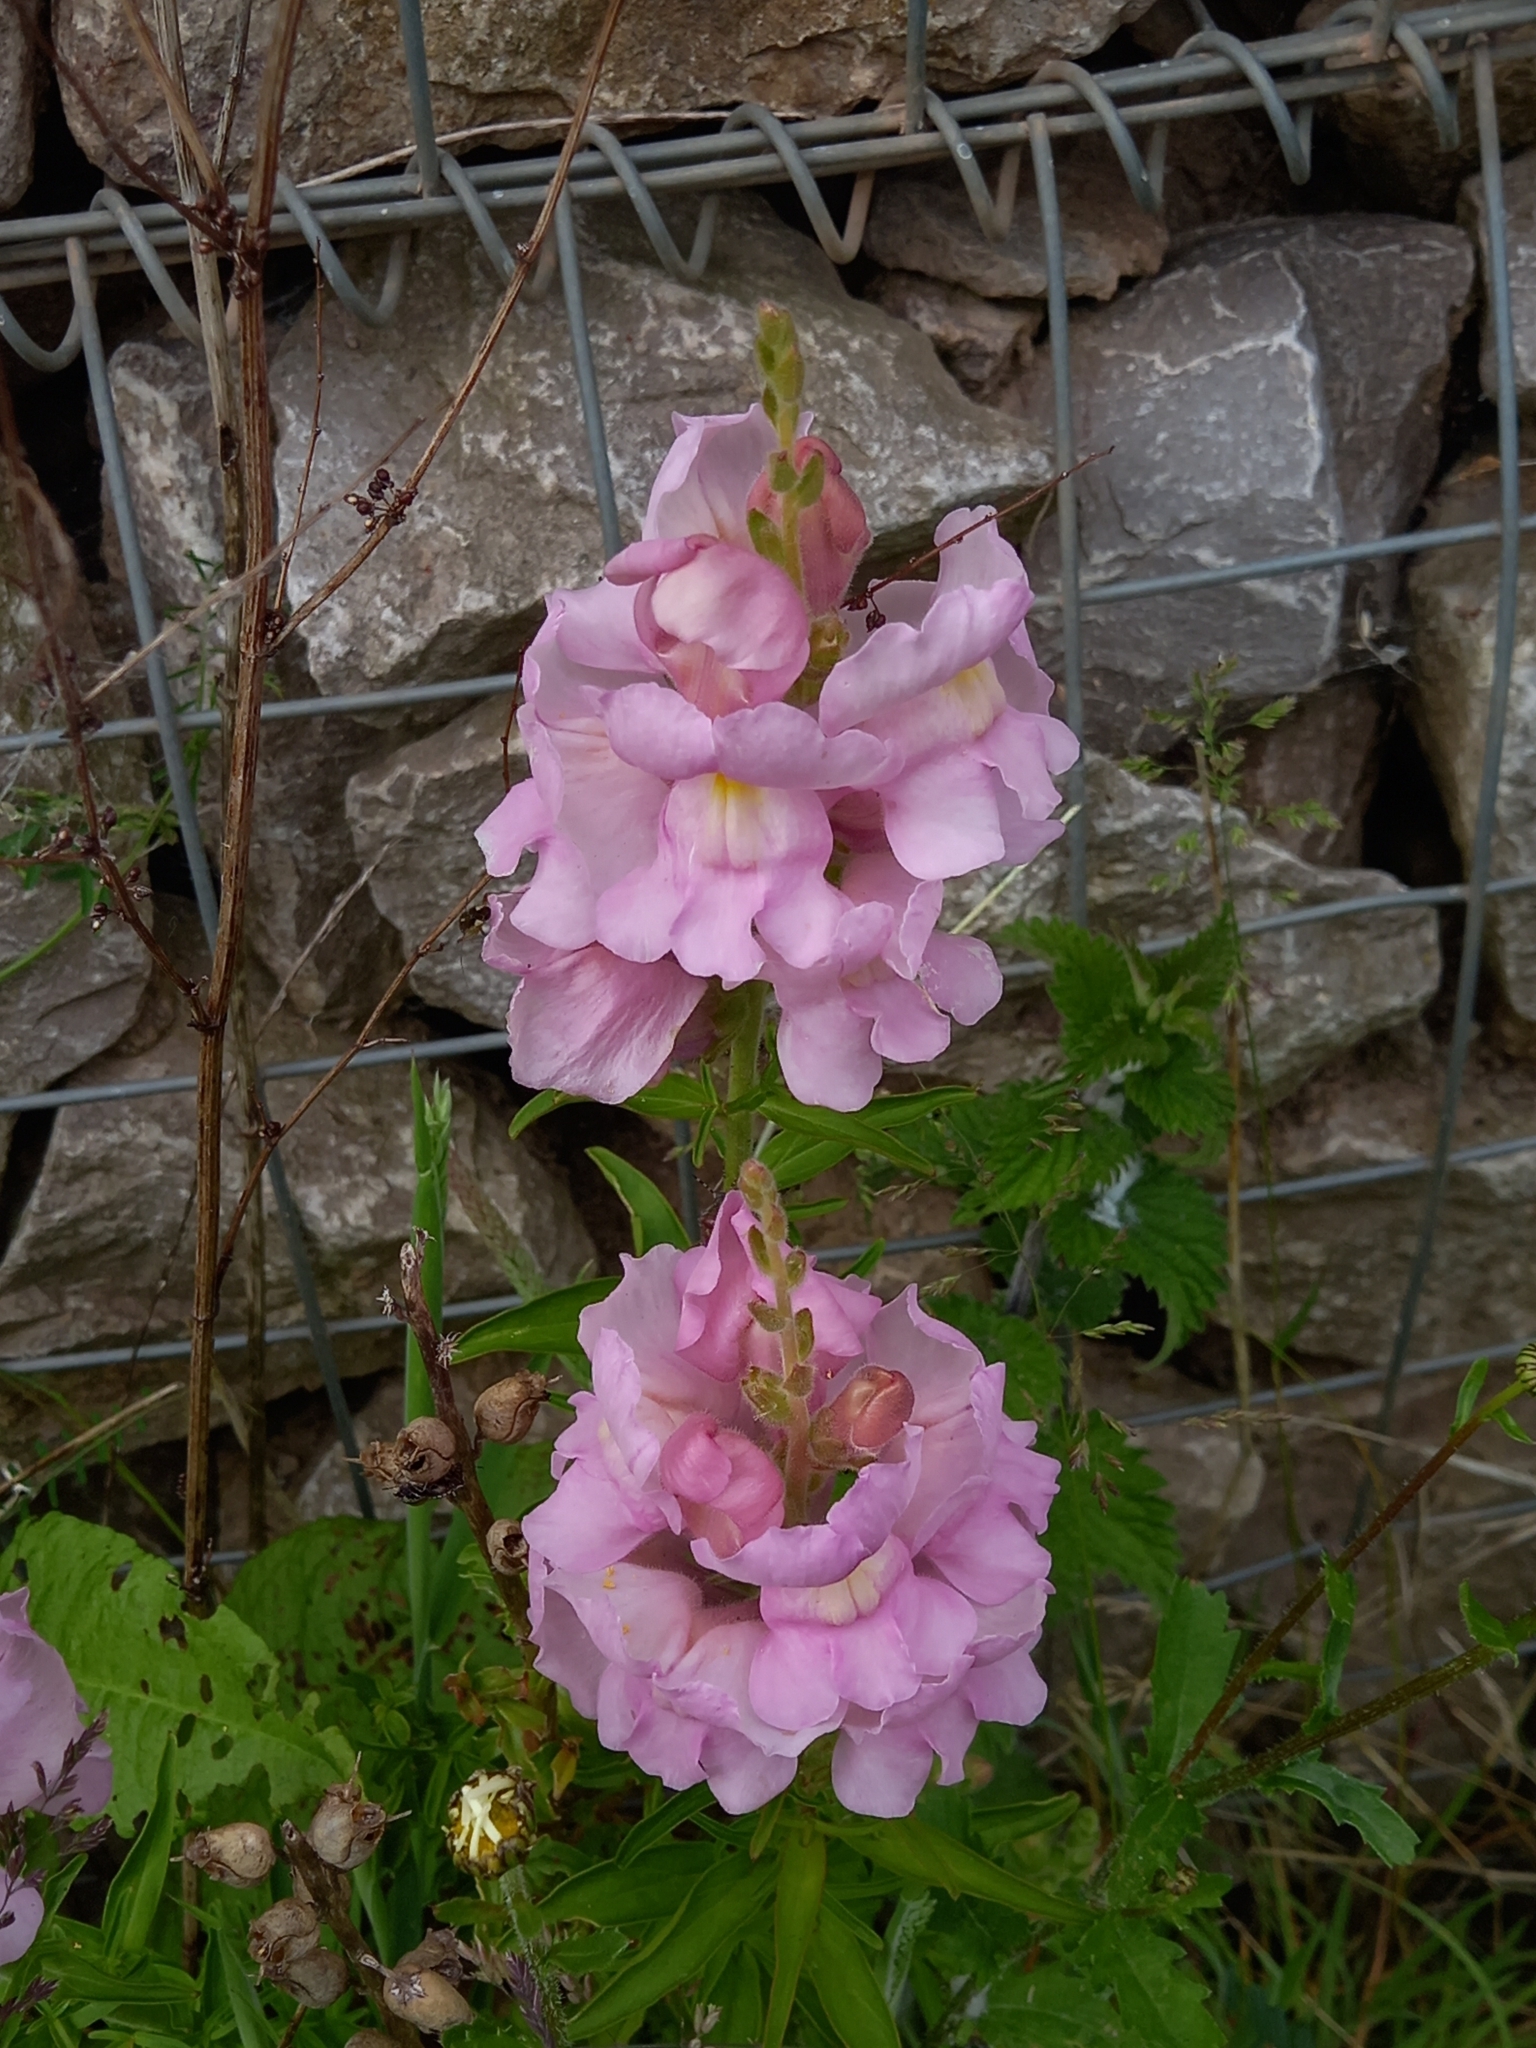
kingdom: Plantae
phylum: Tracheophyta
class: Magnoliopsida
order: Lamiales
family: Plantaginaceae
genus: Antirrhinum
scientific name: Antirrhinum majus
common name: Snapdragon
